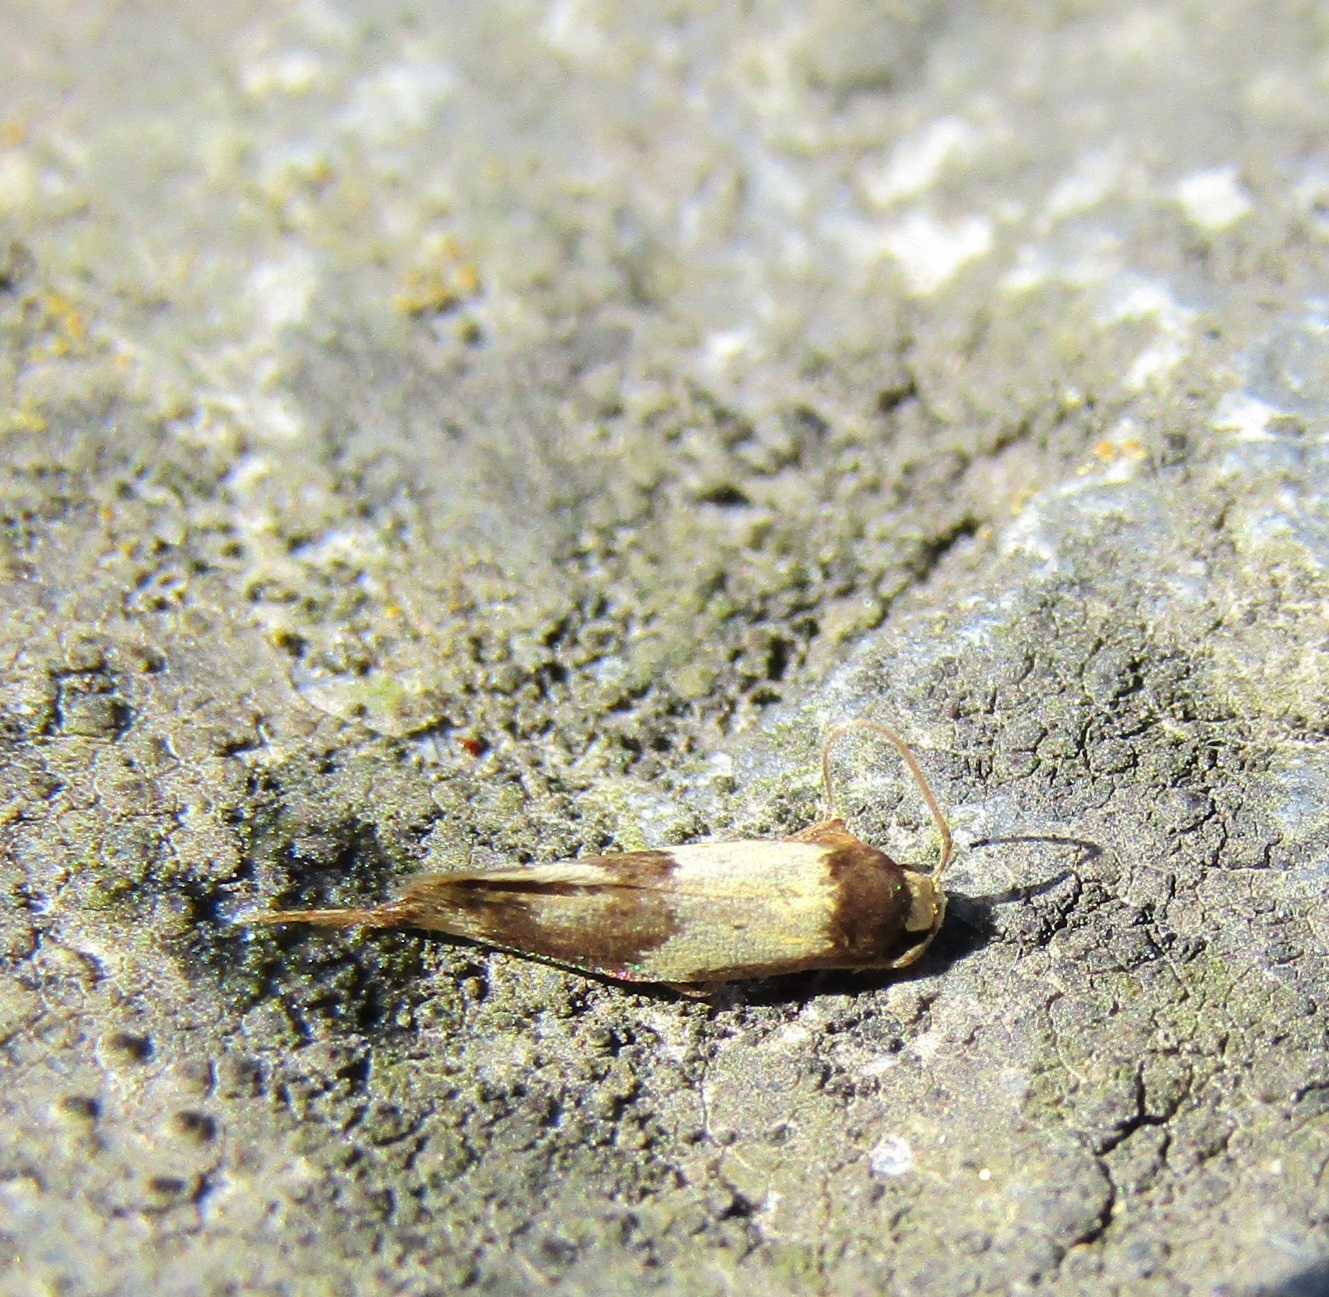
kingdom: Animalia
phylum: Arthropoda
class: Insecta
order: Lepidoptera
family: Tineidae
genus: Opogona
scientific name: Opogona comptella
